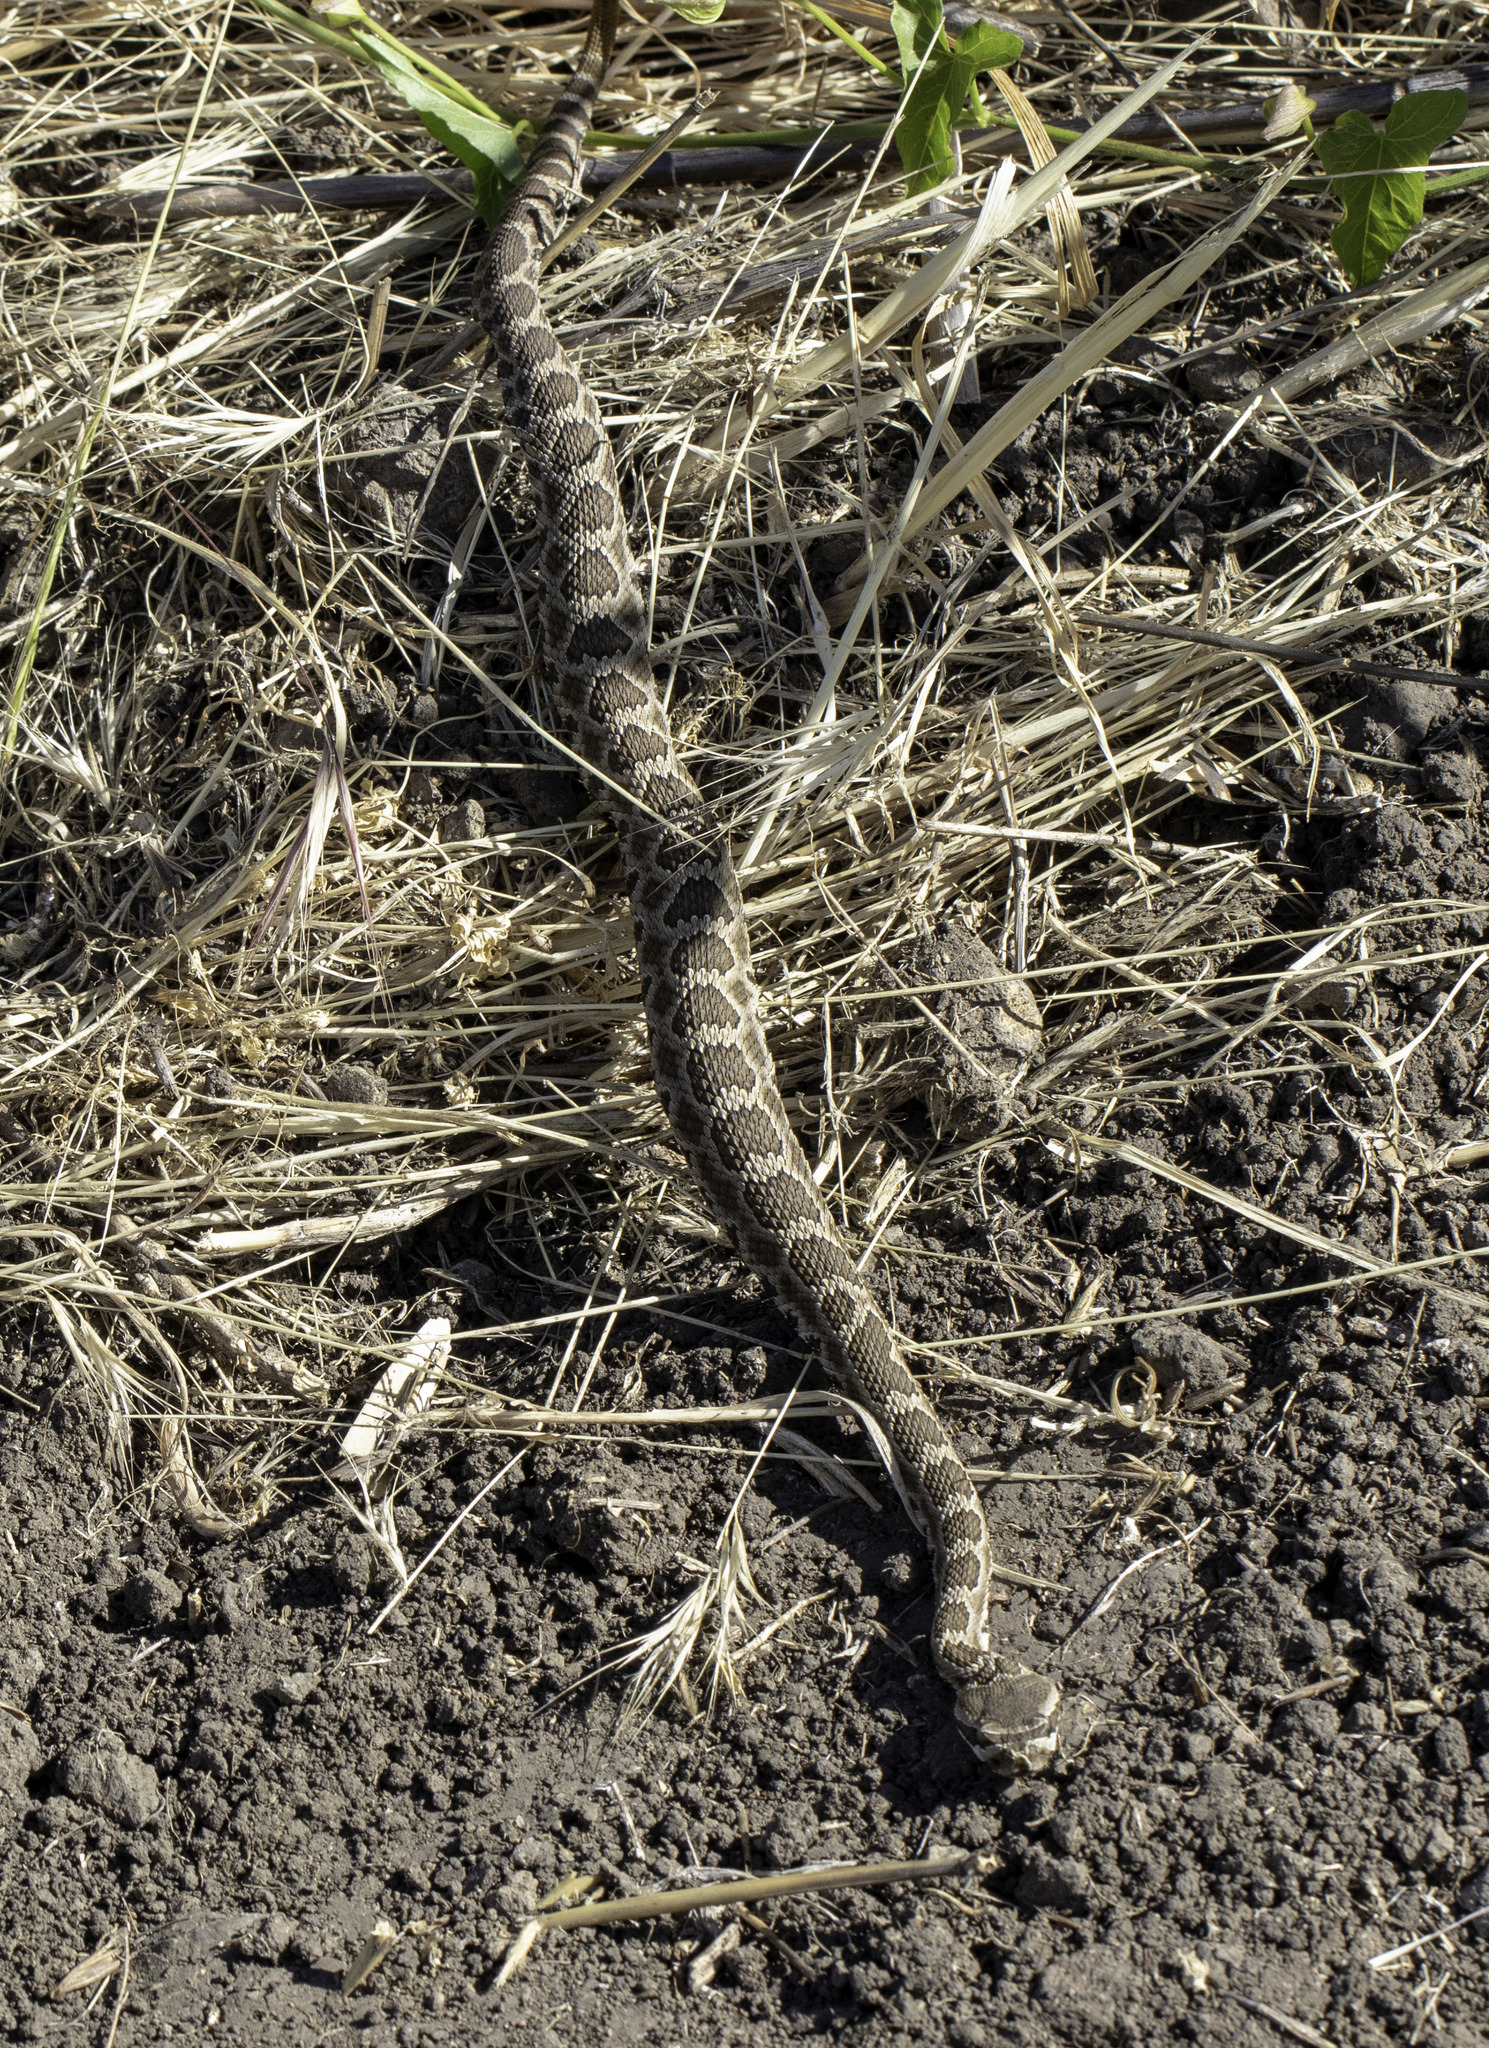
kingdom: Animalia
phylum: Chordata
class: Squamata
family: Viperidae
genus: Crotalus
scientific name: Crotalus oreganus
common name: Abyssus
